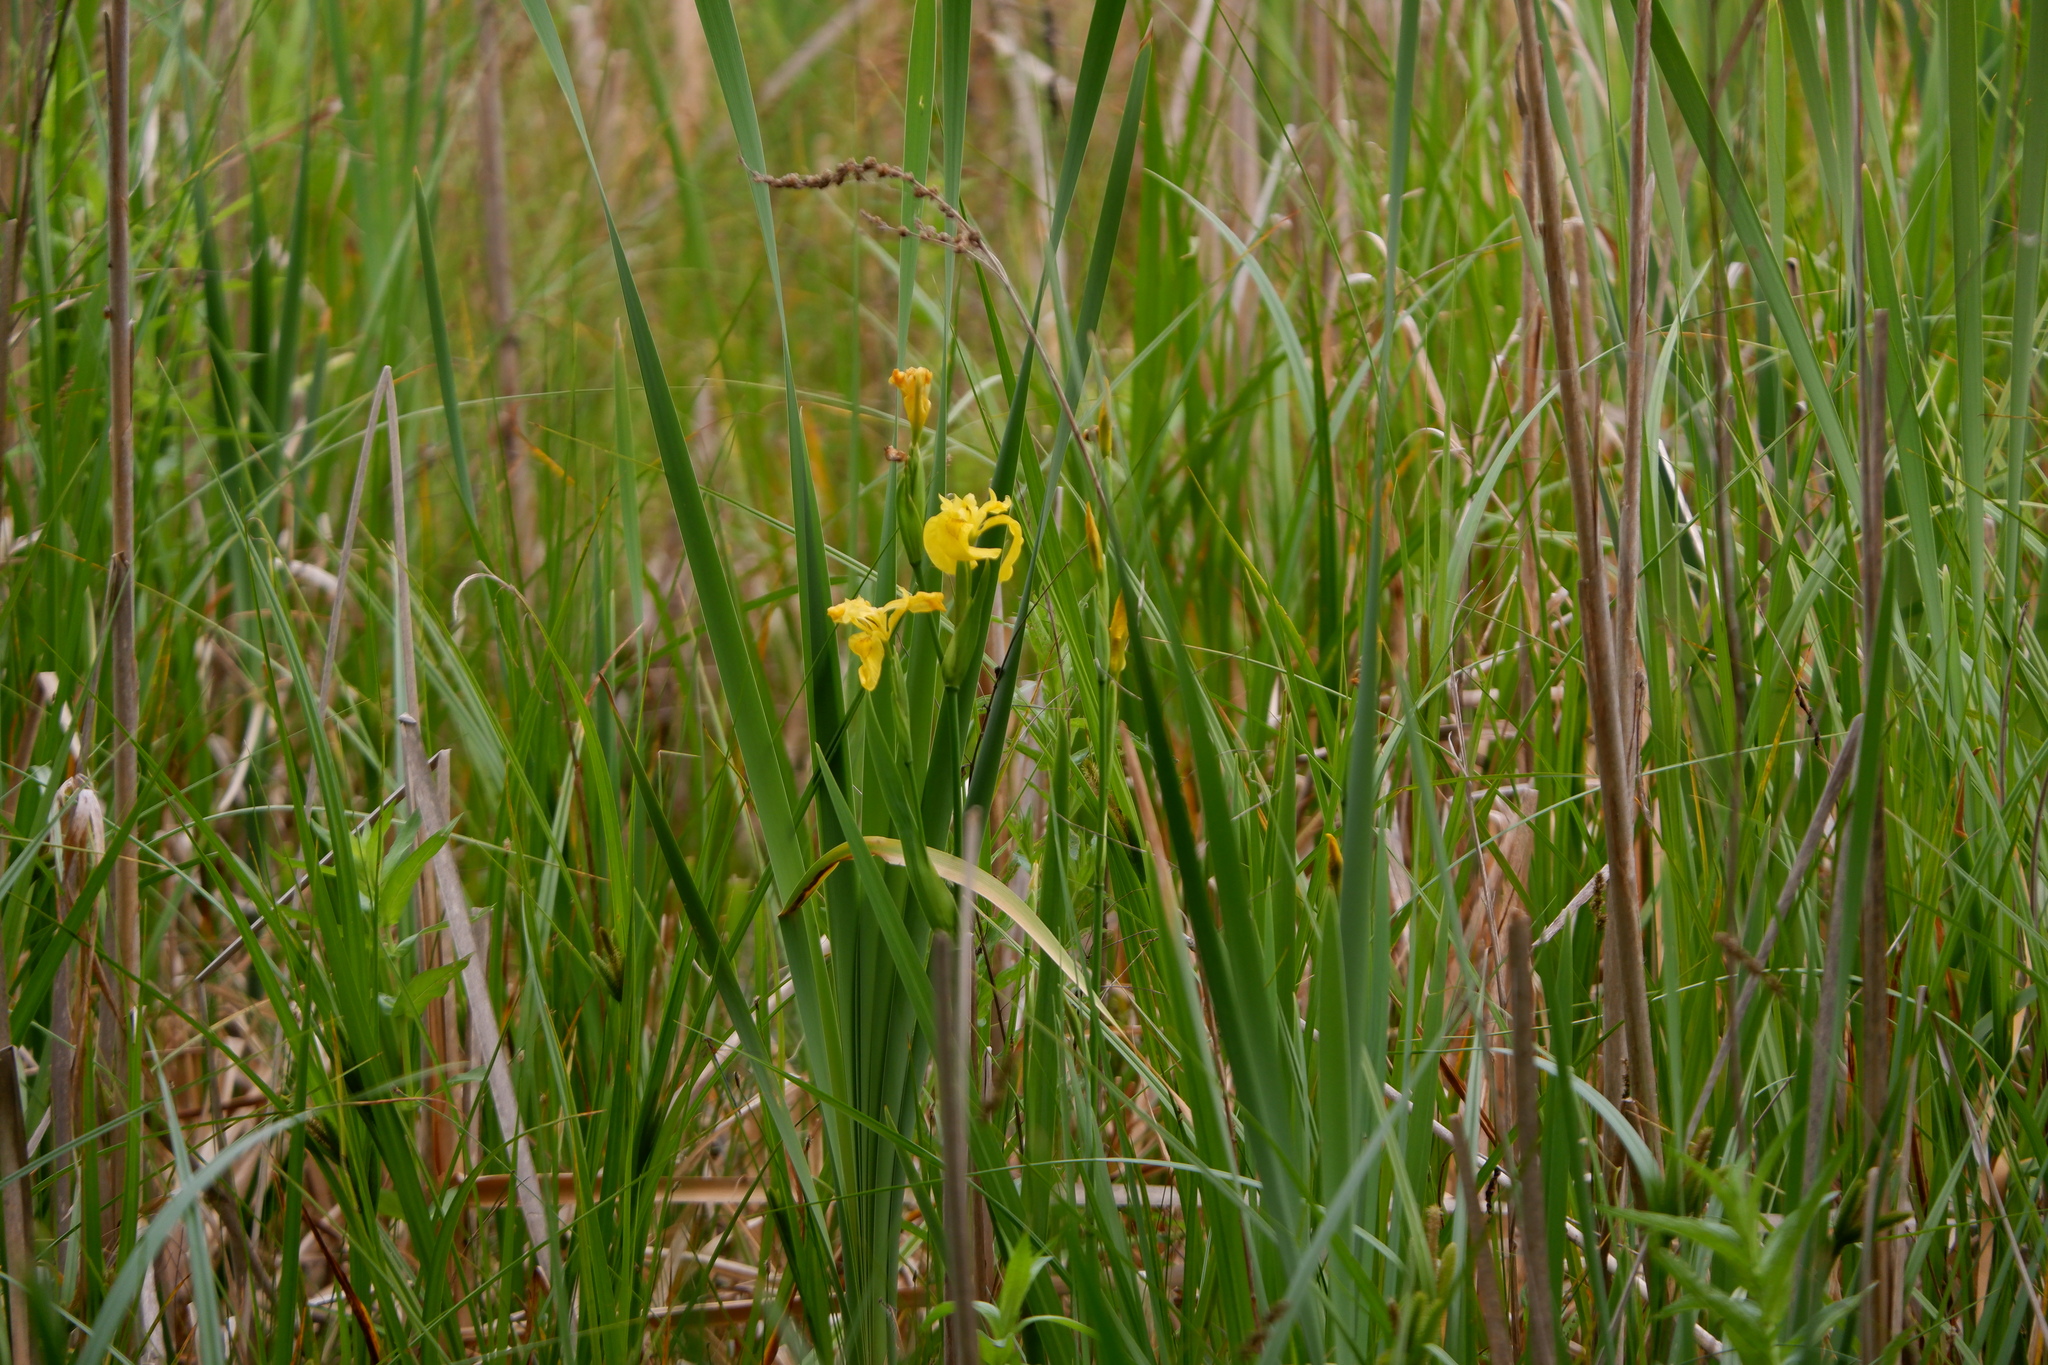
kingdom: Plantae
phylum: Tracheophyta
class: Liliopsida
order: Asparagales
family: Iridaceae
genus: Iris
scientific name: Iris pseudacorus
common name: Yellow flag
